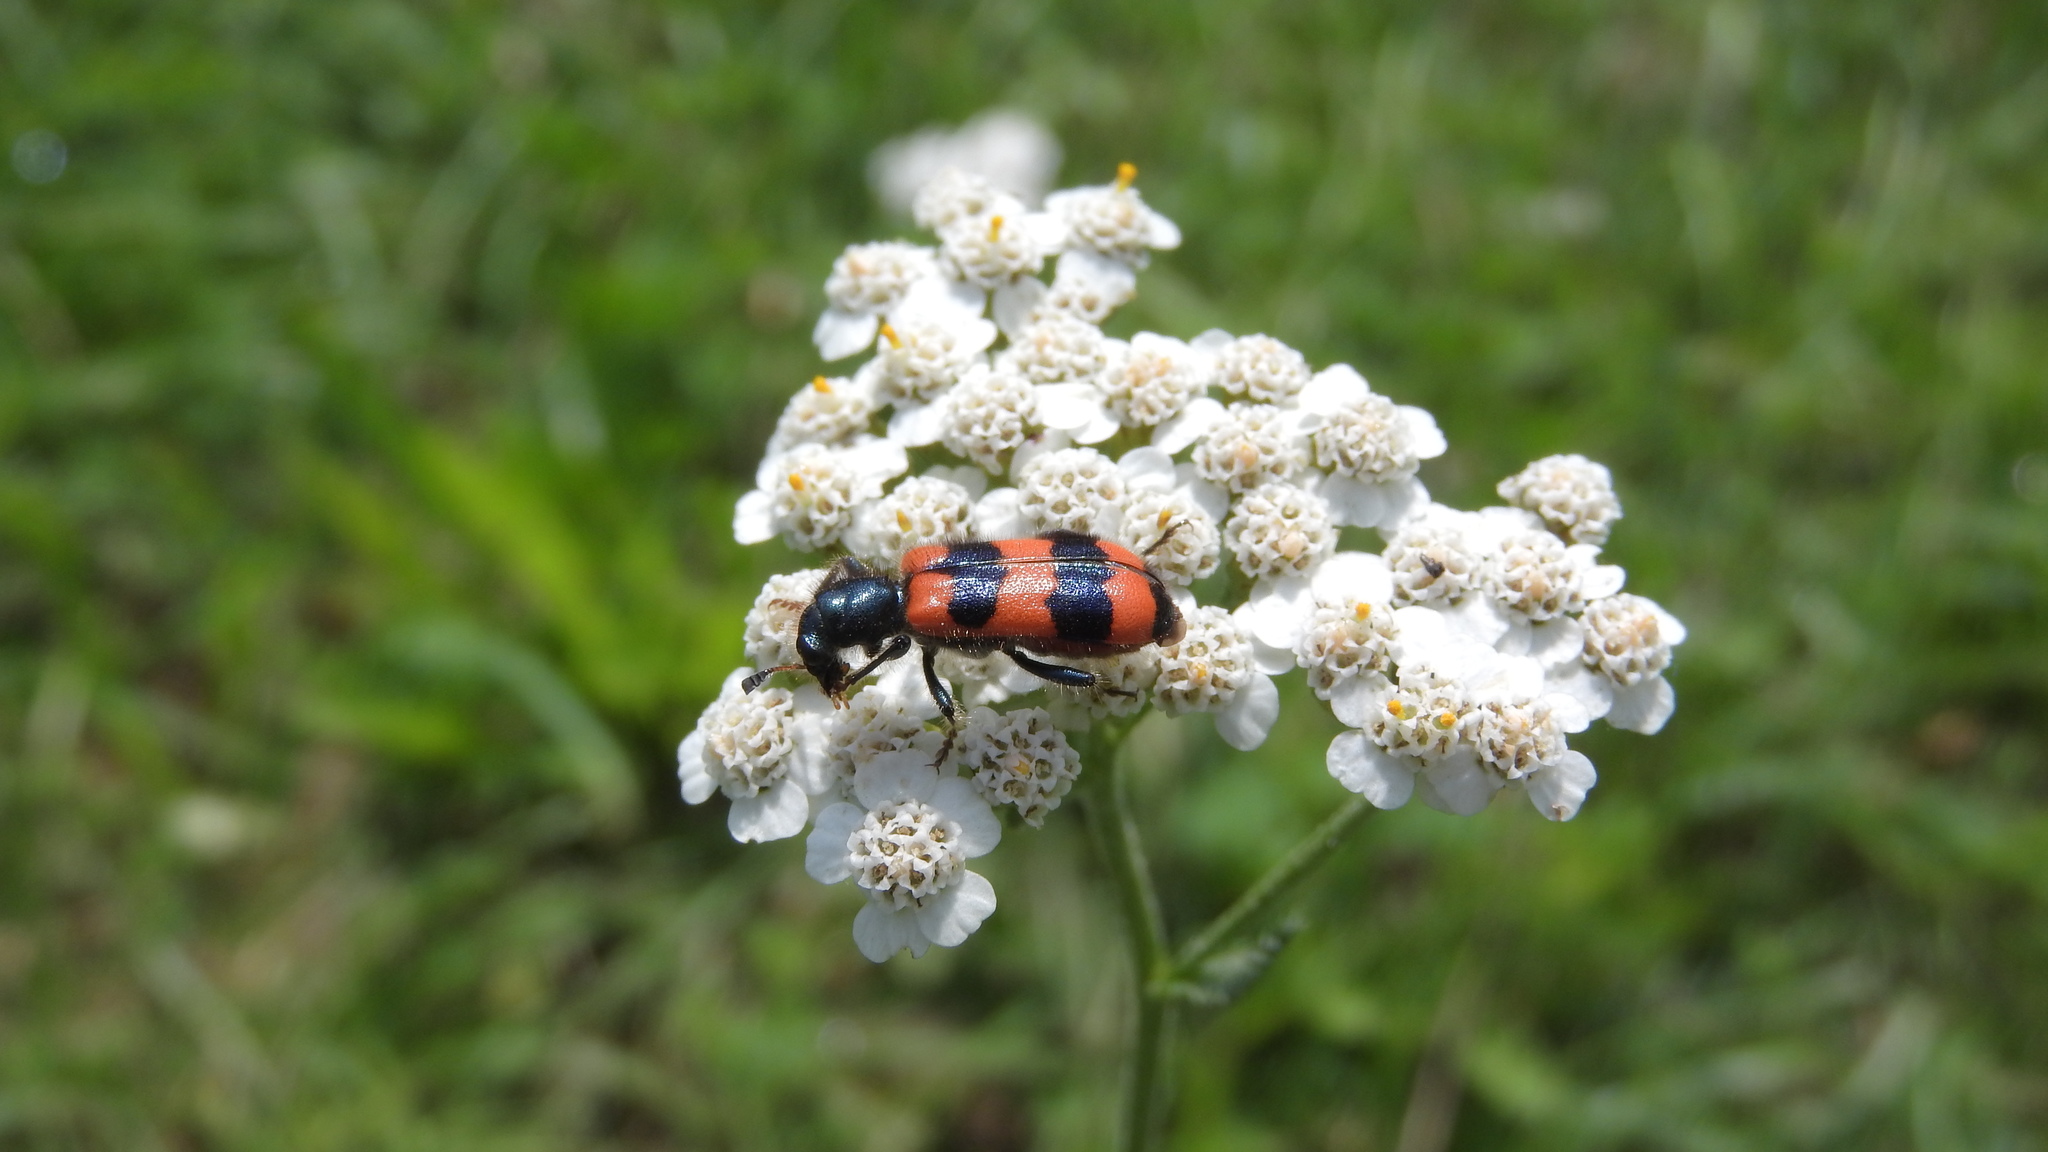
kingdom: Animalia
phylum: Arthropoda
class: Insecta
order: Coleoptera
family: Cleridae
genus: Trichodes
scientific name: Trichodes apiarius
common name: Bee-eating beetle
